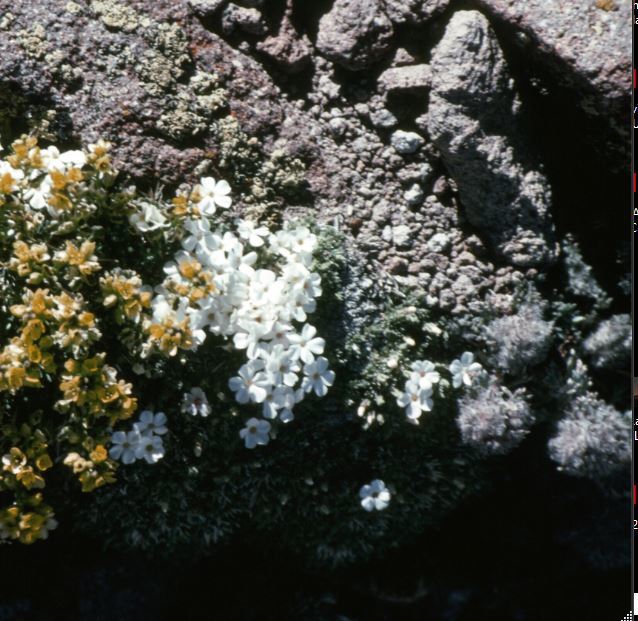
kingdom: Plantae
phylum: Tracheophyta
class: Magnoliopsida
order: Ericales
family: Polemoniaceae
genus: Phlox
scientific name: Phlox condensata
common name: Compact phlox
